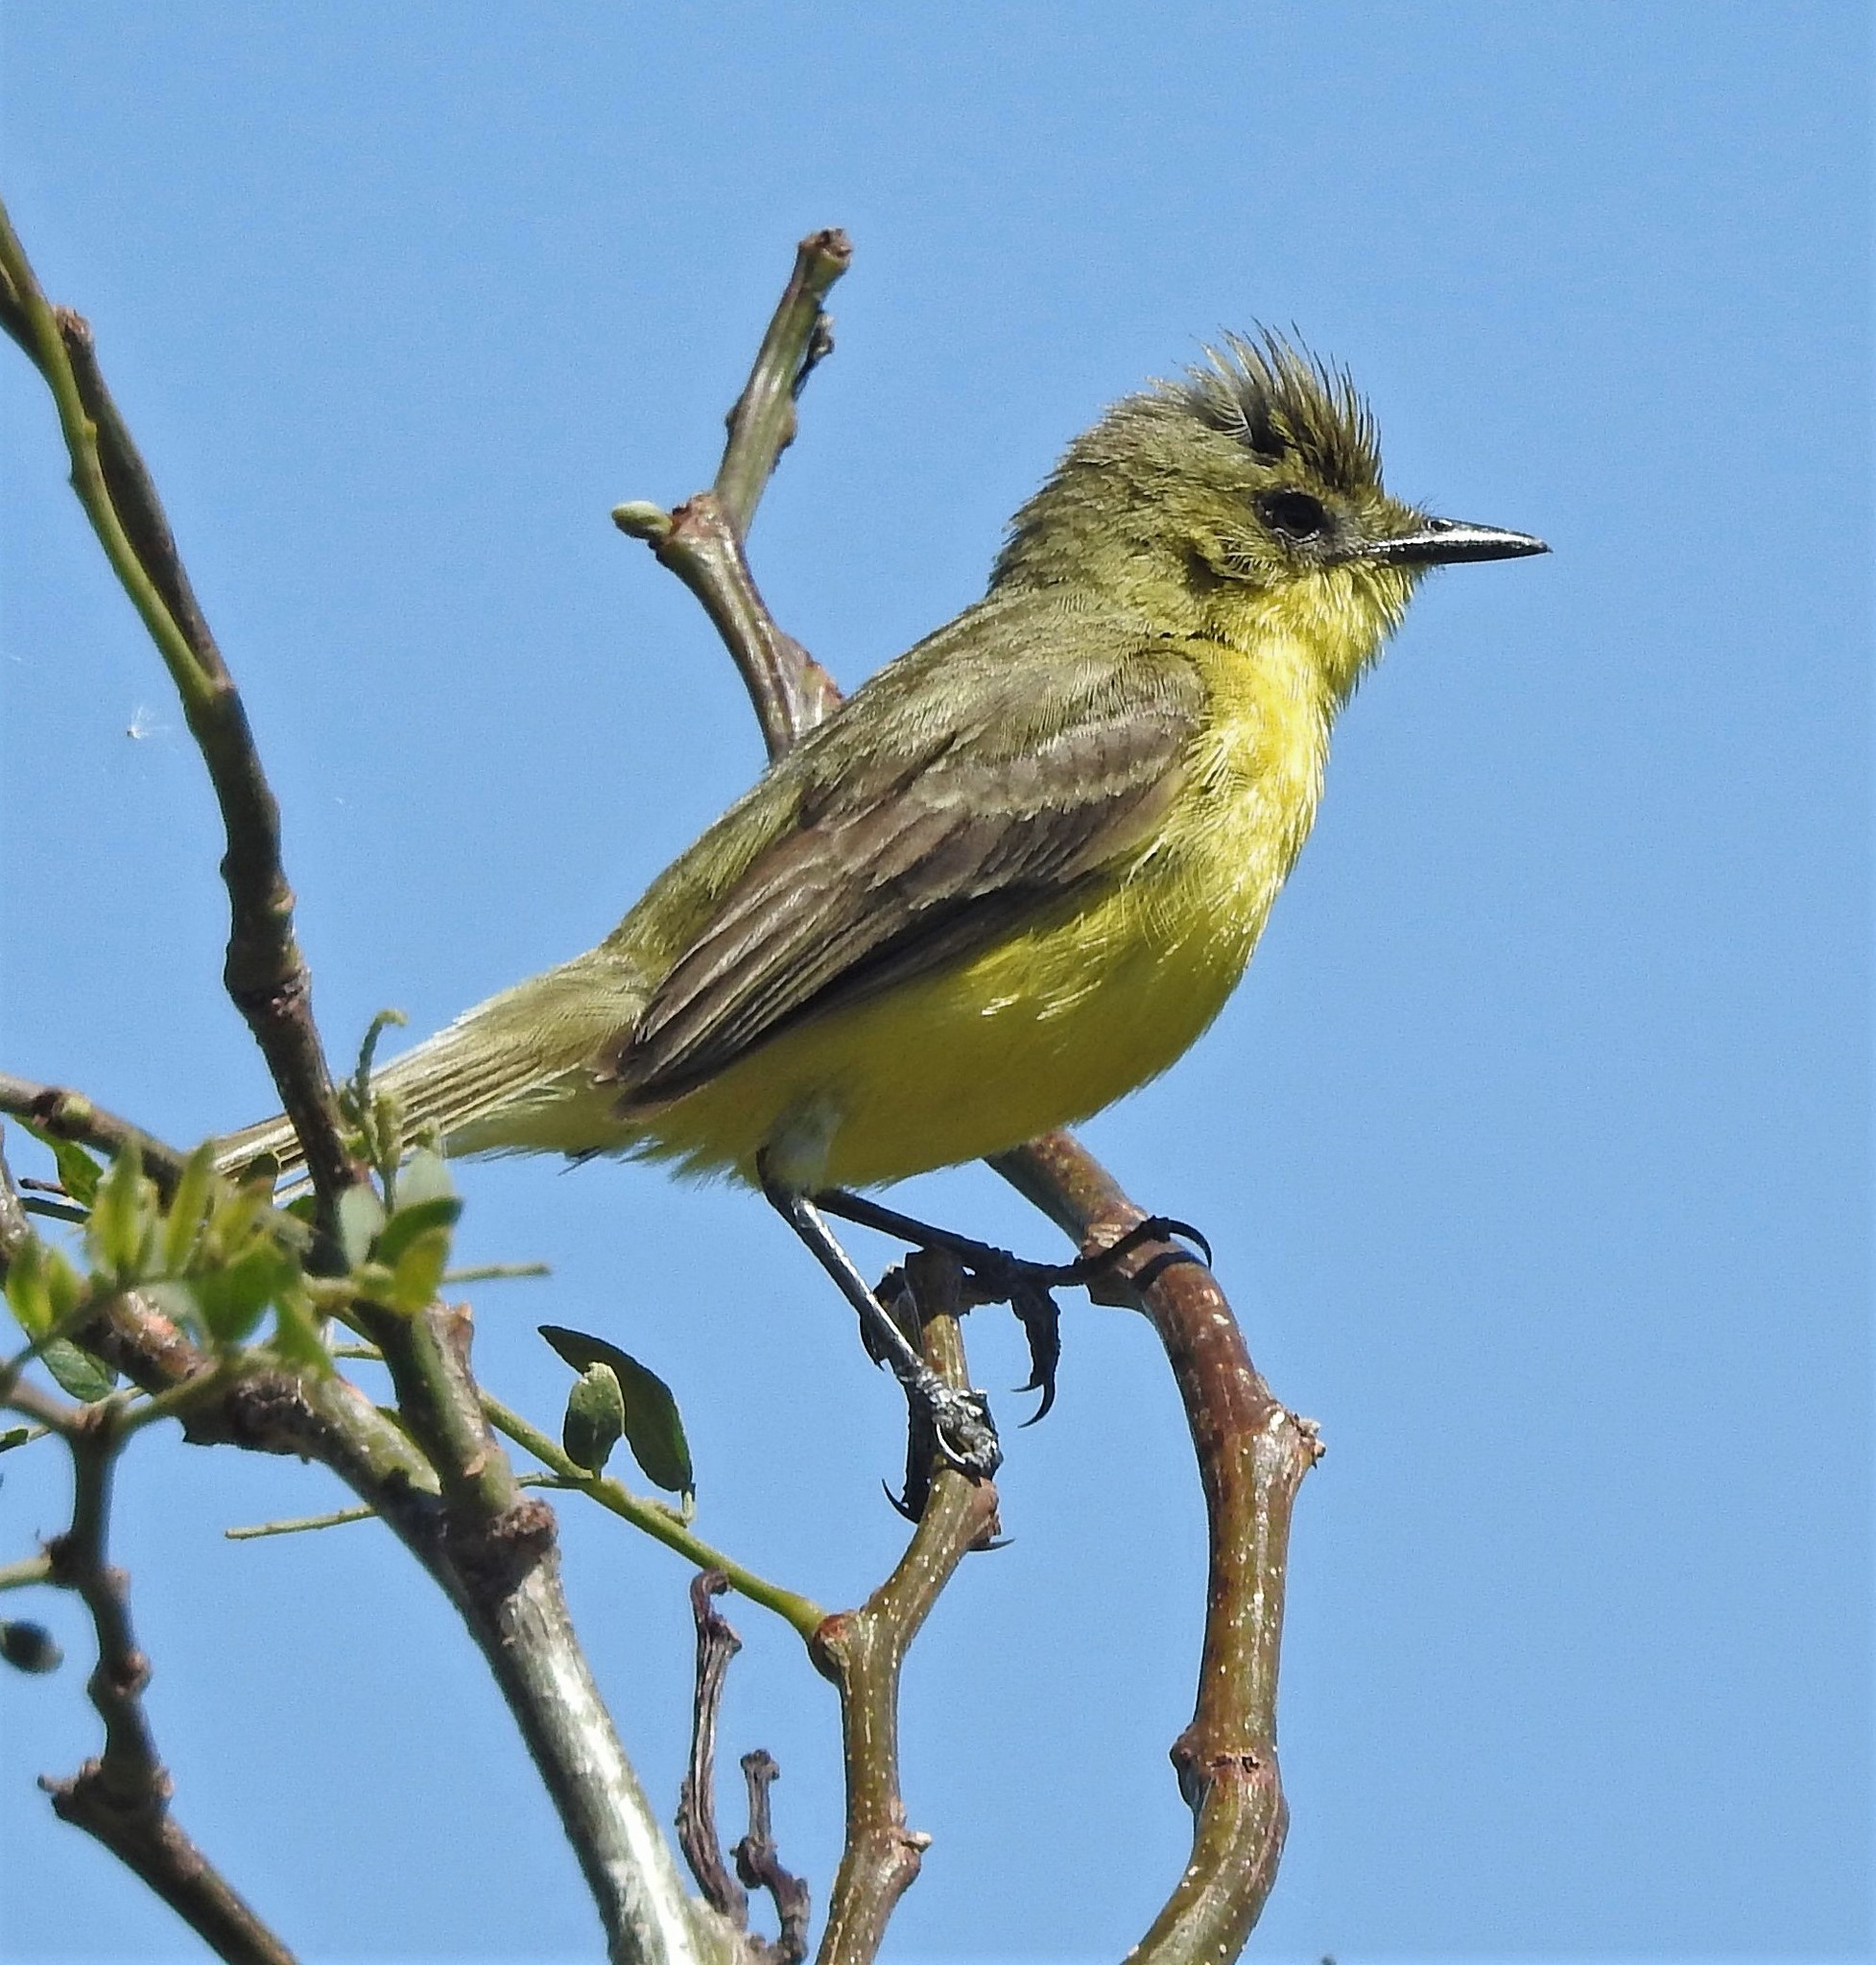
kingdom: Animalia
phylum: Chordata
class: Aves
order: Passeriformes
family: Tyrannidae
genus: Pseudocolopteryx
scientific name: Pseudocolopteryx acutipennis
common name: Subtropical doradito
